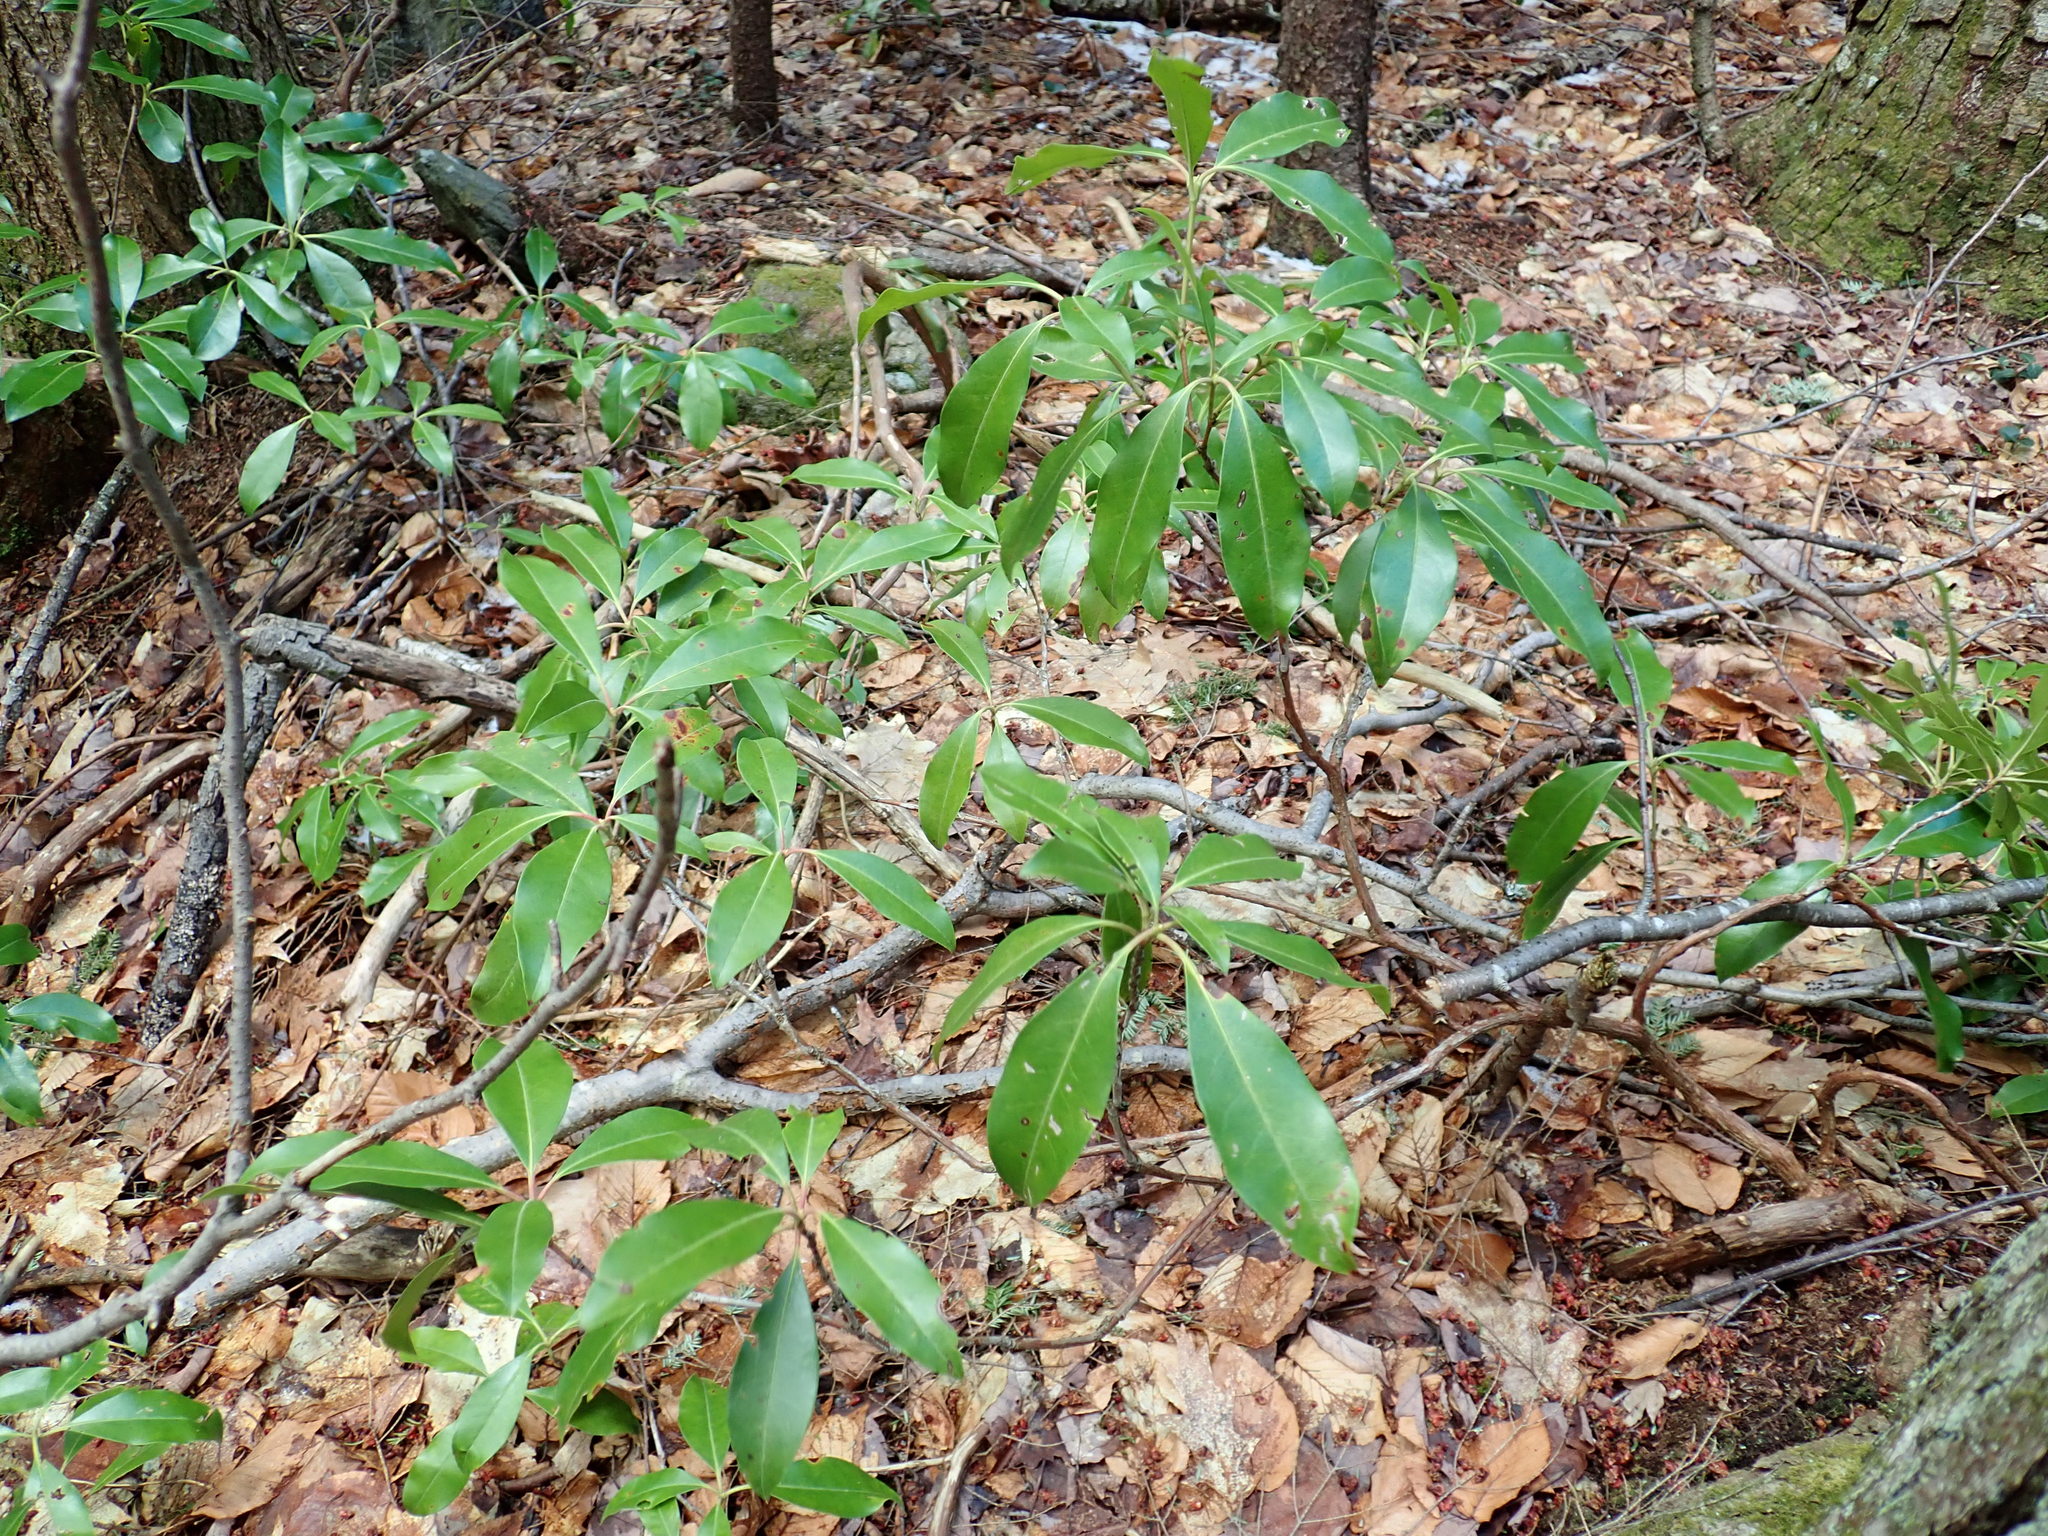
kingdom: Plantae
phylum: Tracheophyta
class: Magnoliopsida
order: Ericales
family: Ericaceae
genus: Kalmia
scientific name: Kalmia latifolia
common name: Mountain-laurel
